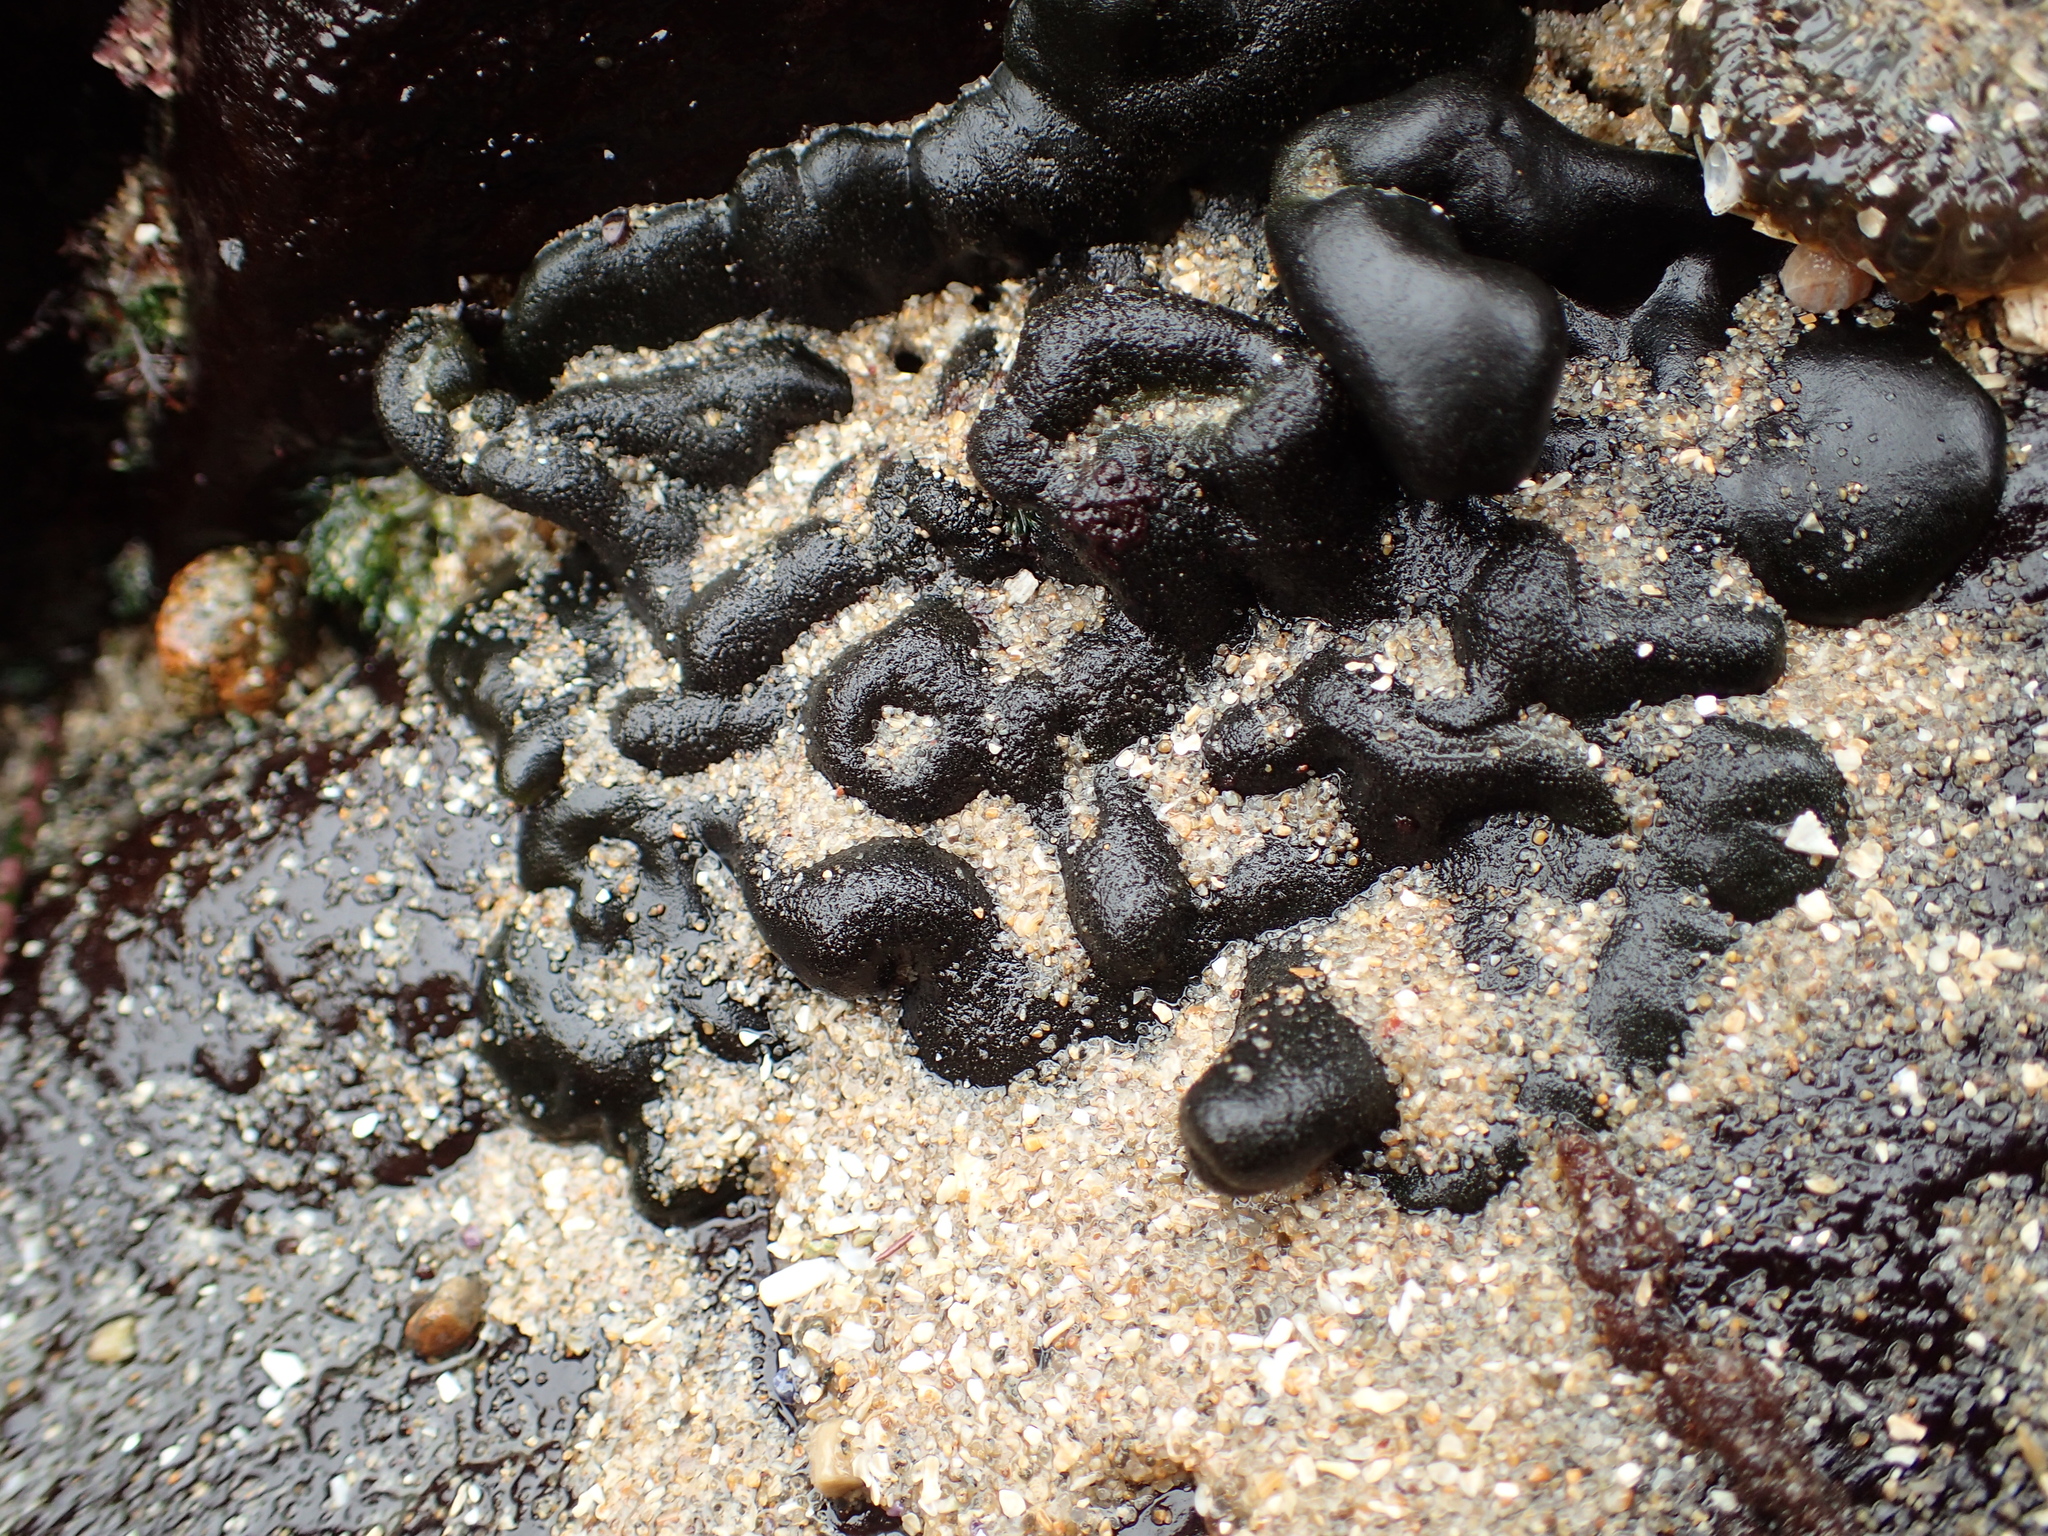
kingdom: Plantae
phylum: Chlorophyta
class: Ulvophyceae
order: Bryopsidales
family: Codiaceae
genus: Codium
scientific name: Codium setchellii
